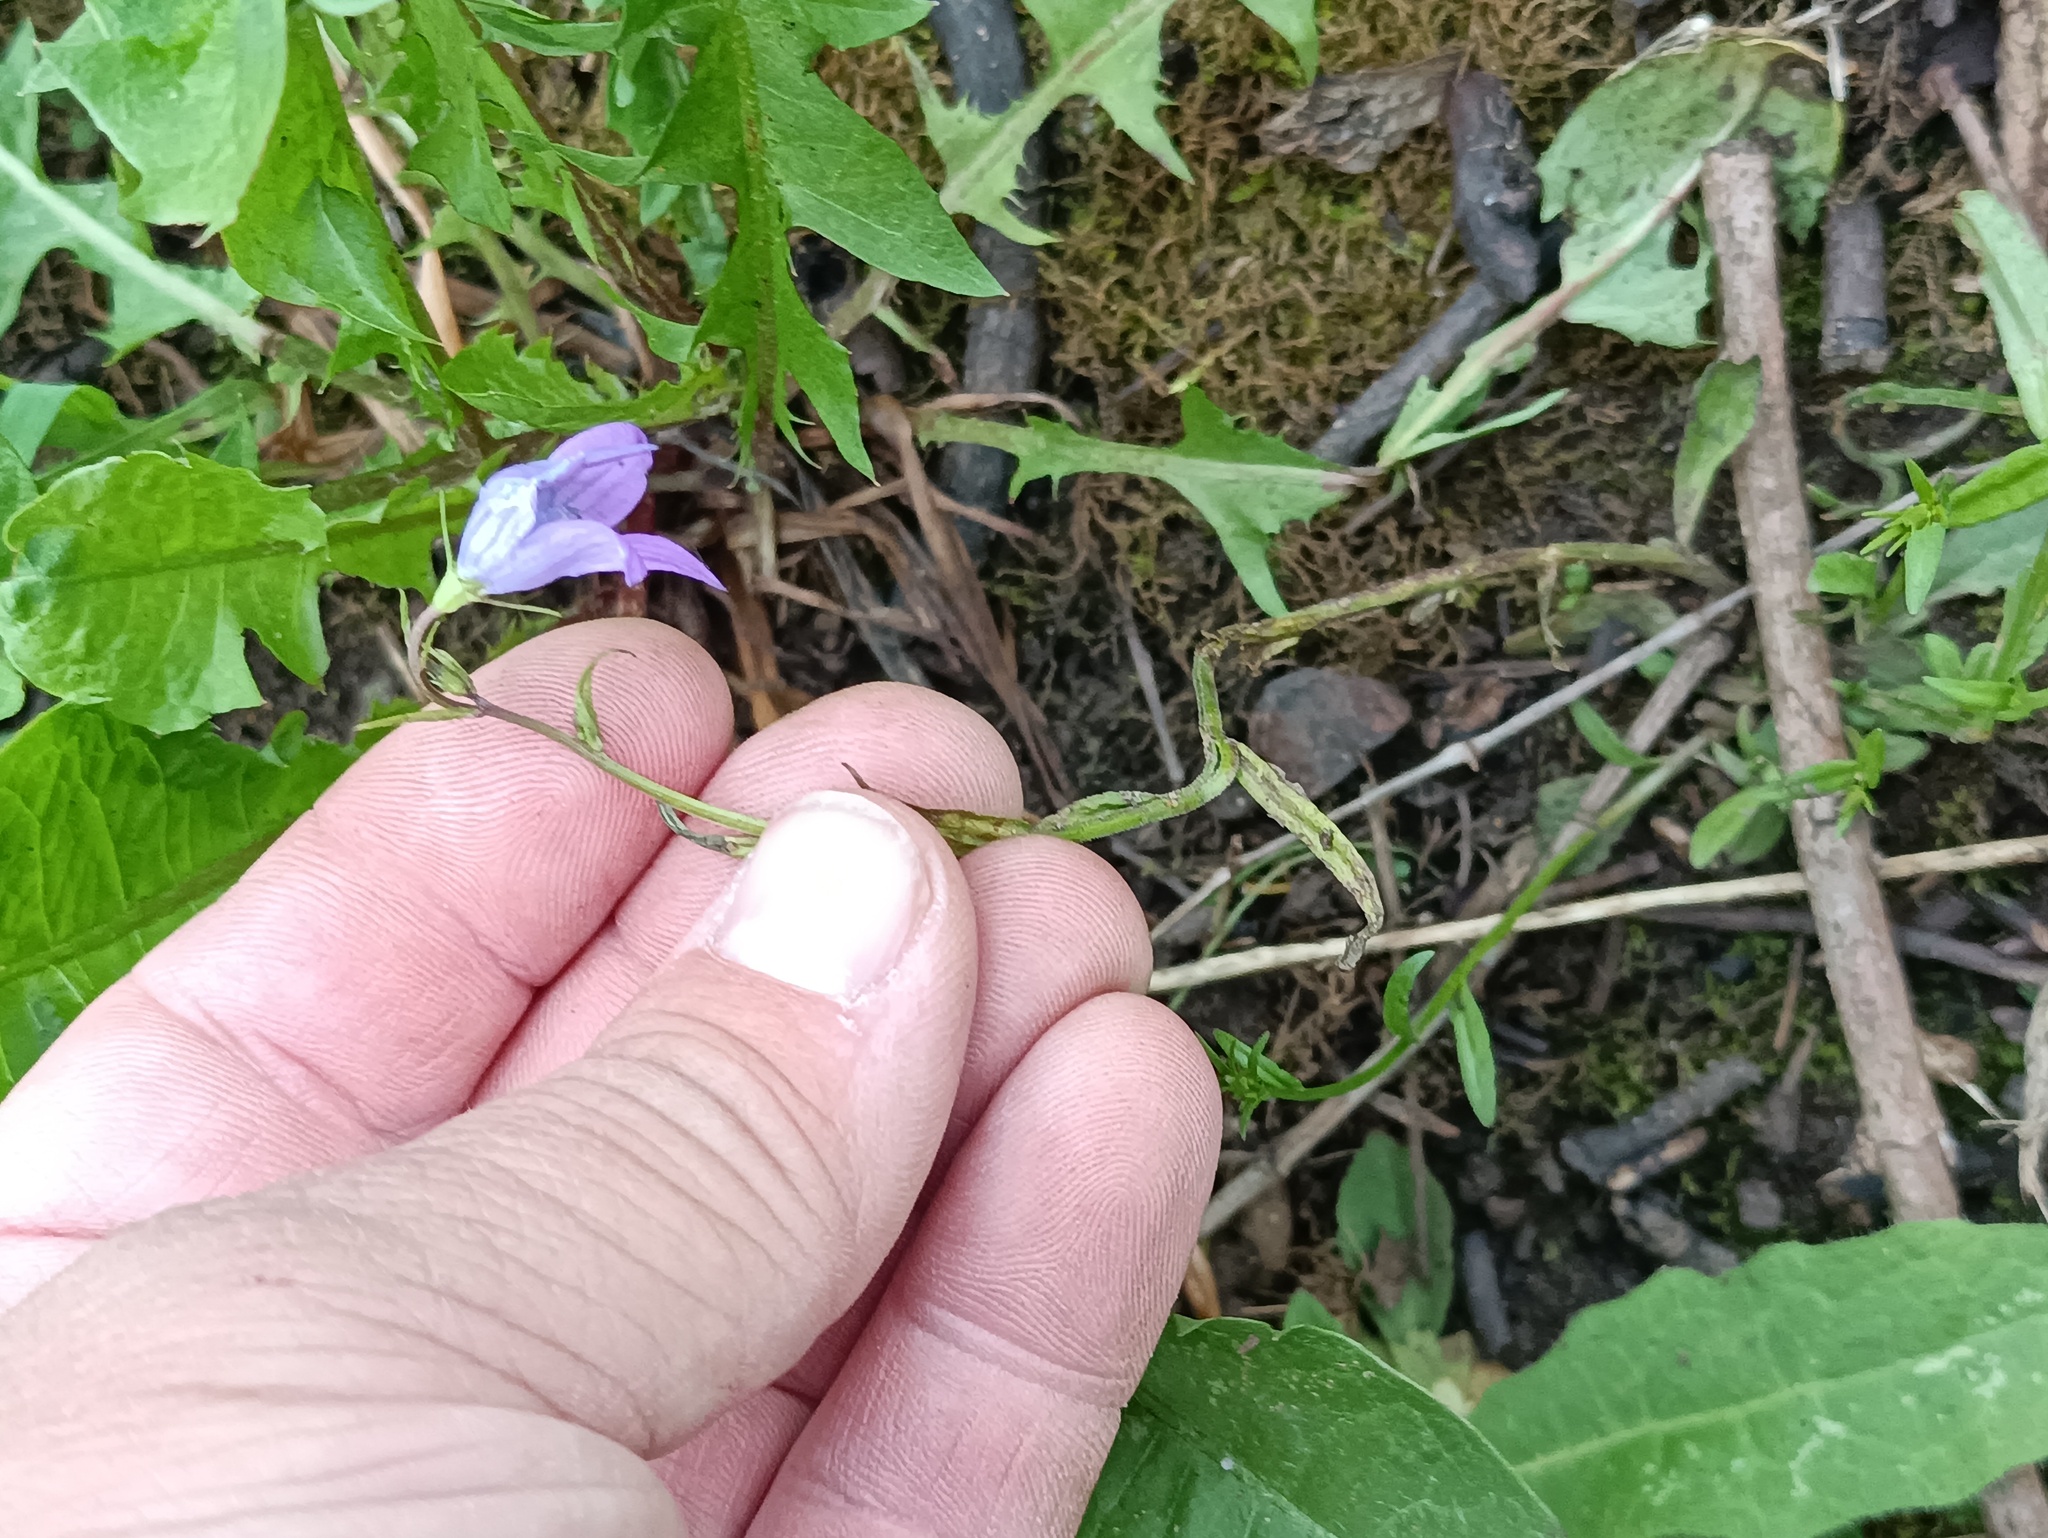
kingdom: Plantae
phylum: Tracheophyta
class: Magnoliopsida
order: Asterales
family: Campanulaceae
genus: Campanula
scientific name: Campanula patula
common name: Spreading bellflower
